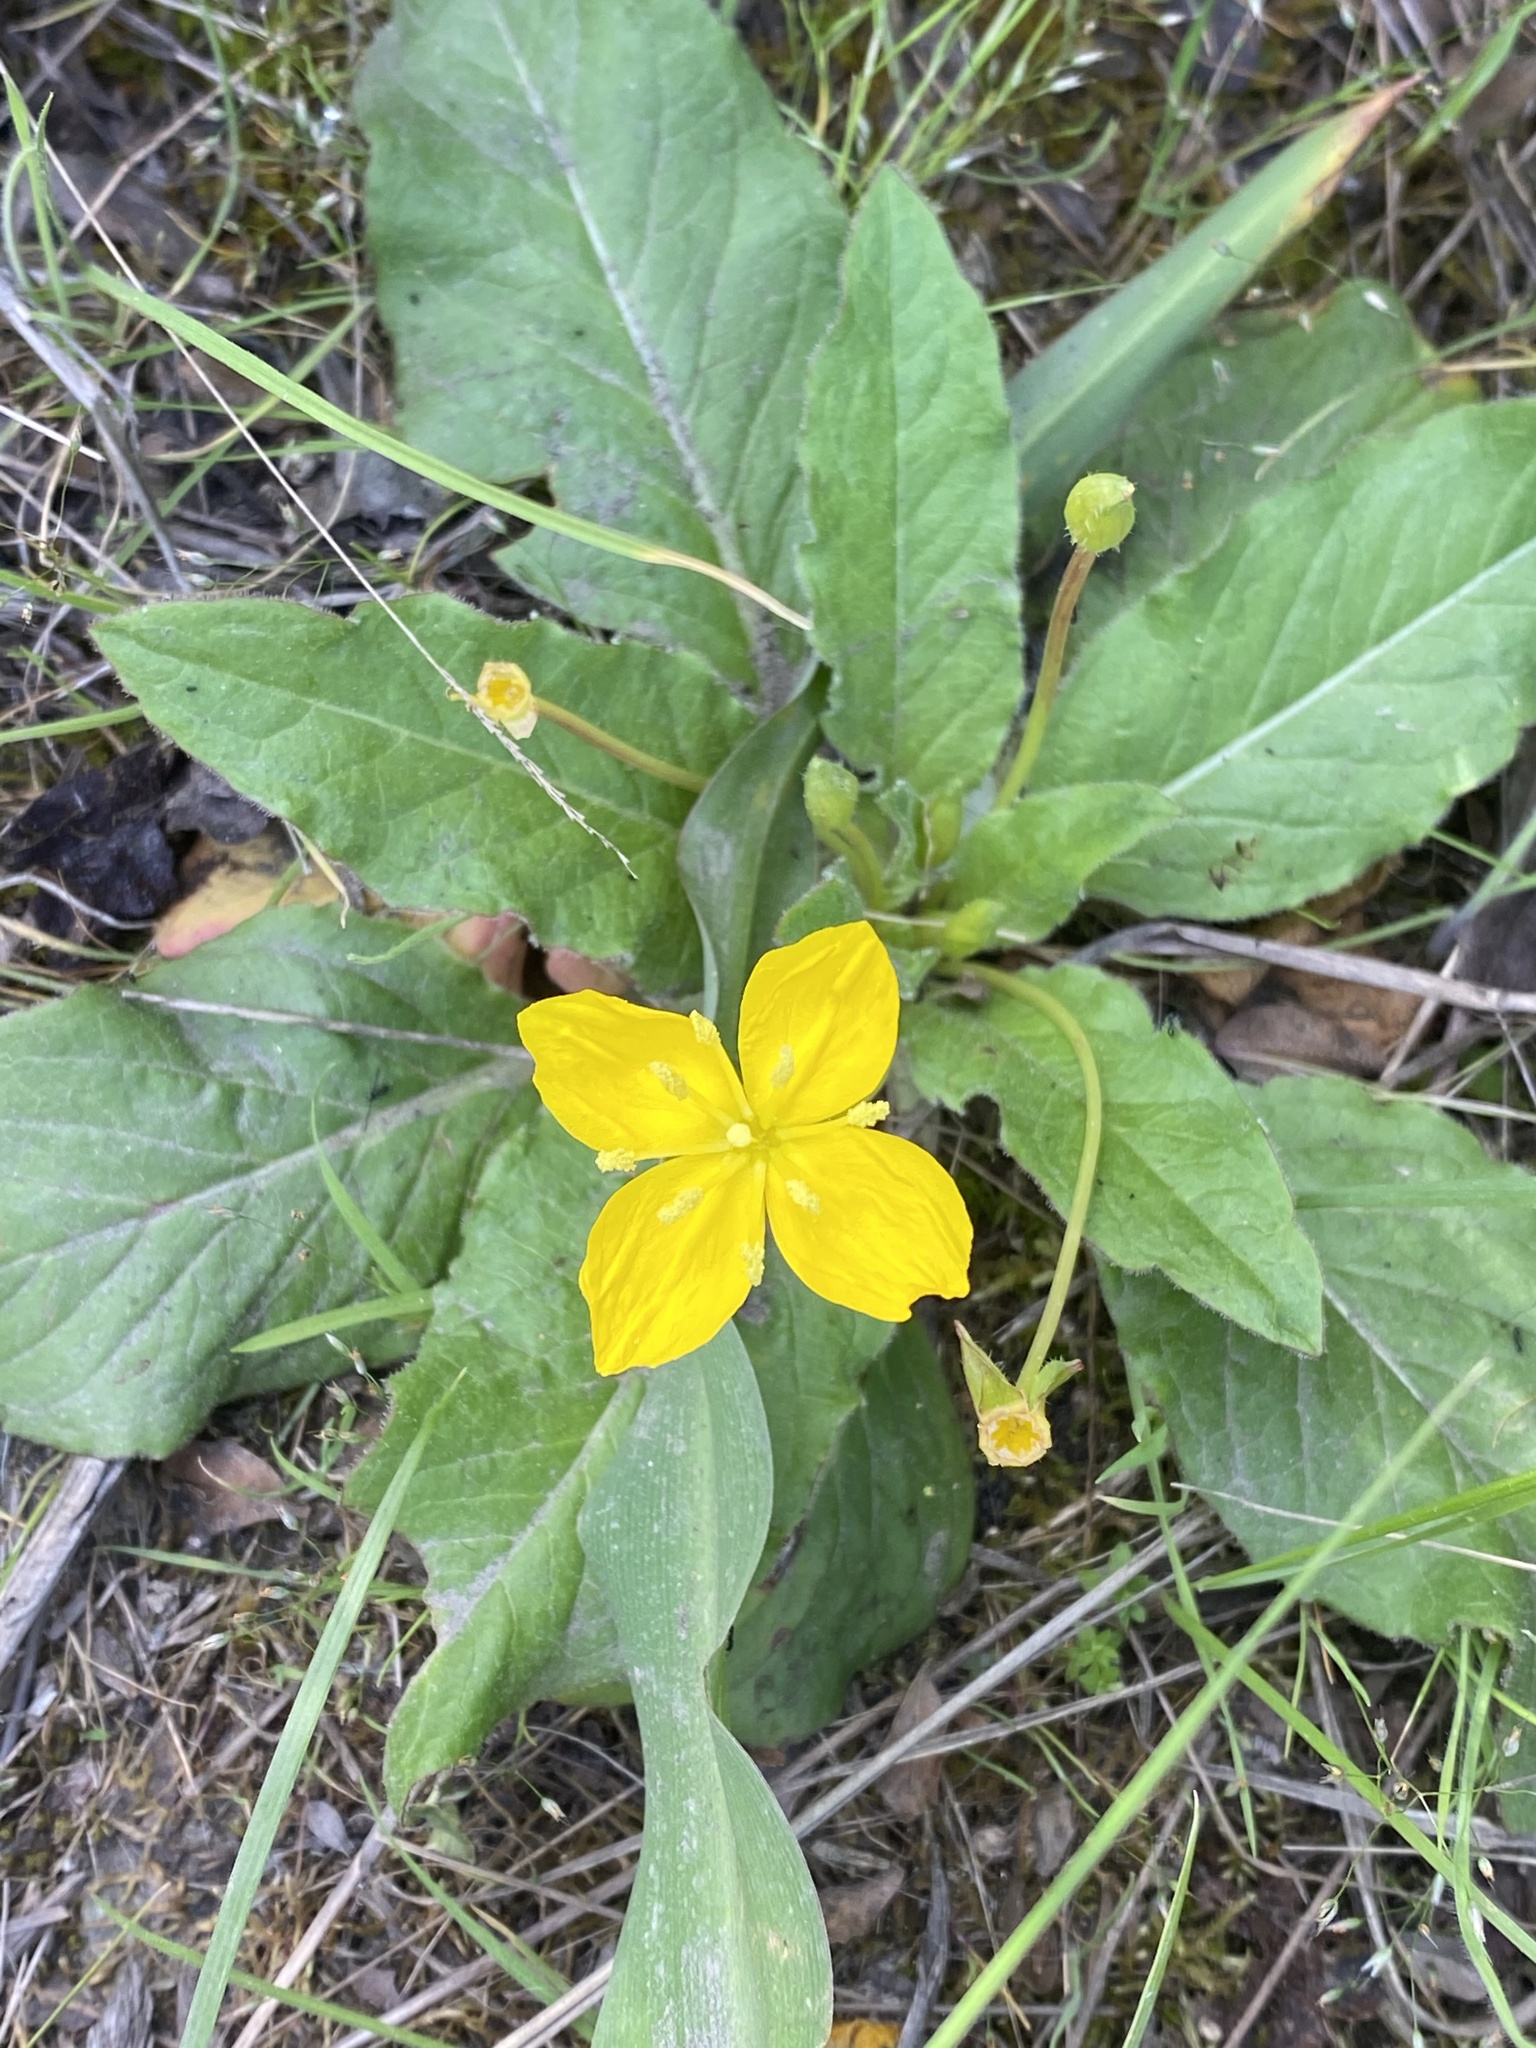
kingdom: Plantae
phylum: Tracheophyta
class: Magnoliopsida
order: Myrtales
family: Onagraceae
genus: Taraxia
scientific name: Taraxia ovata
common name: Goldeneggs
